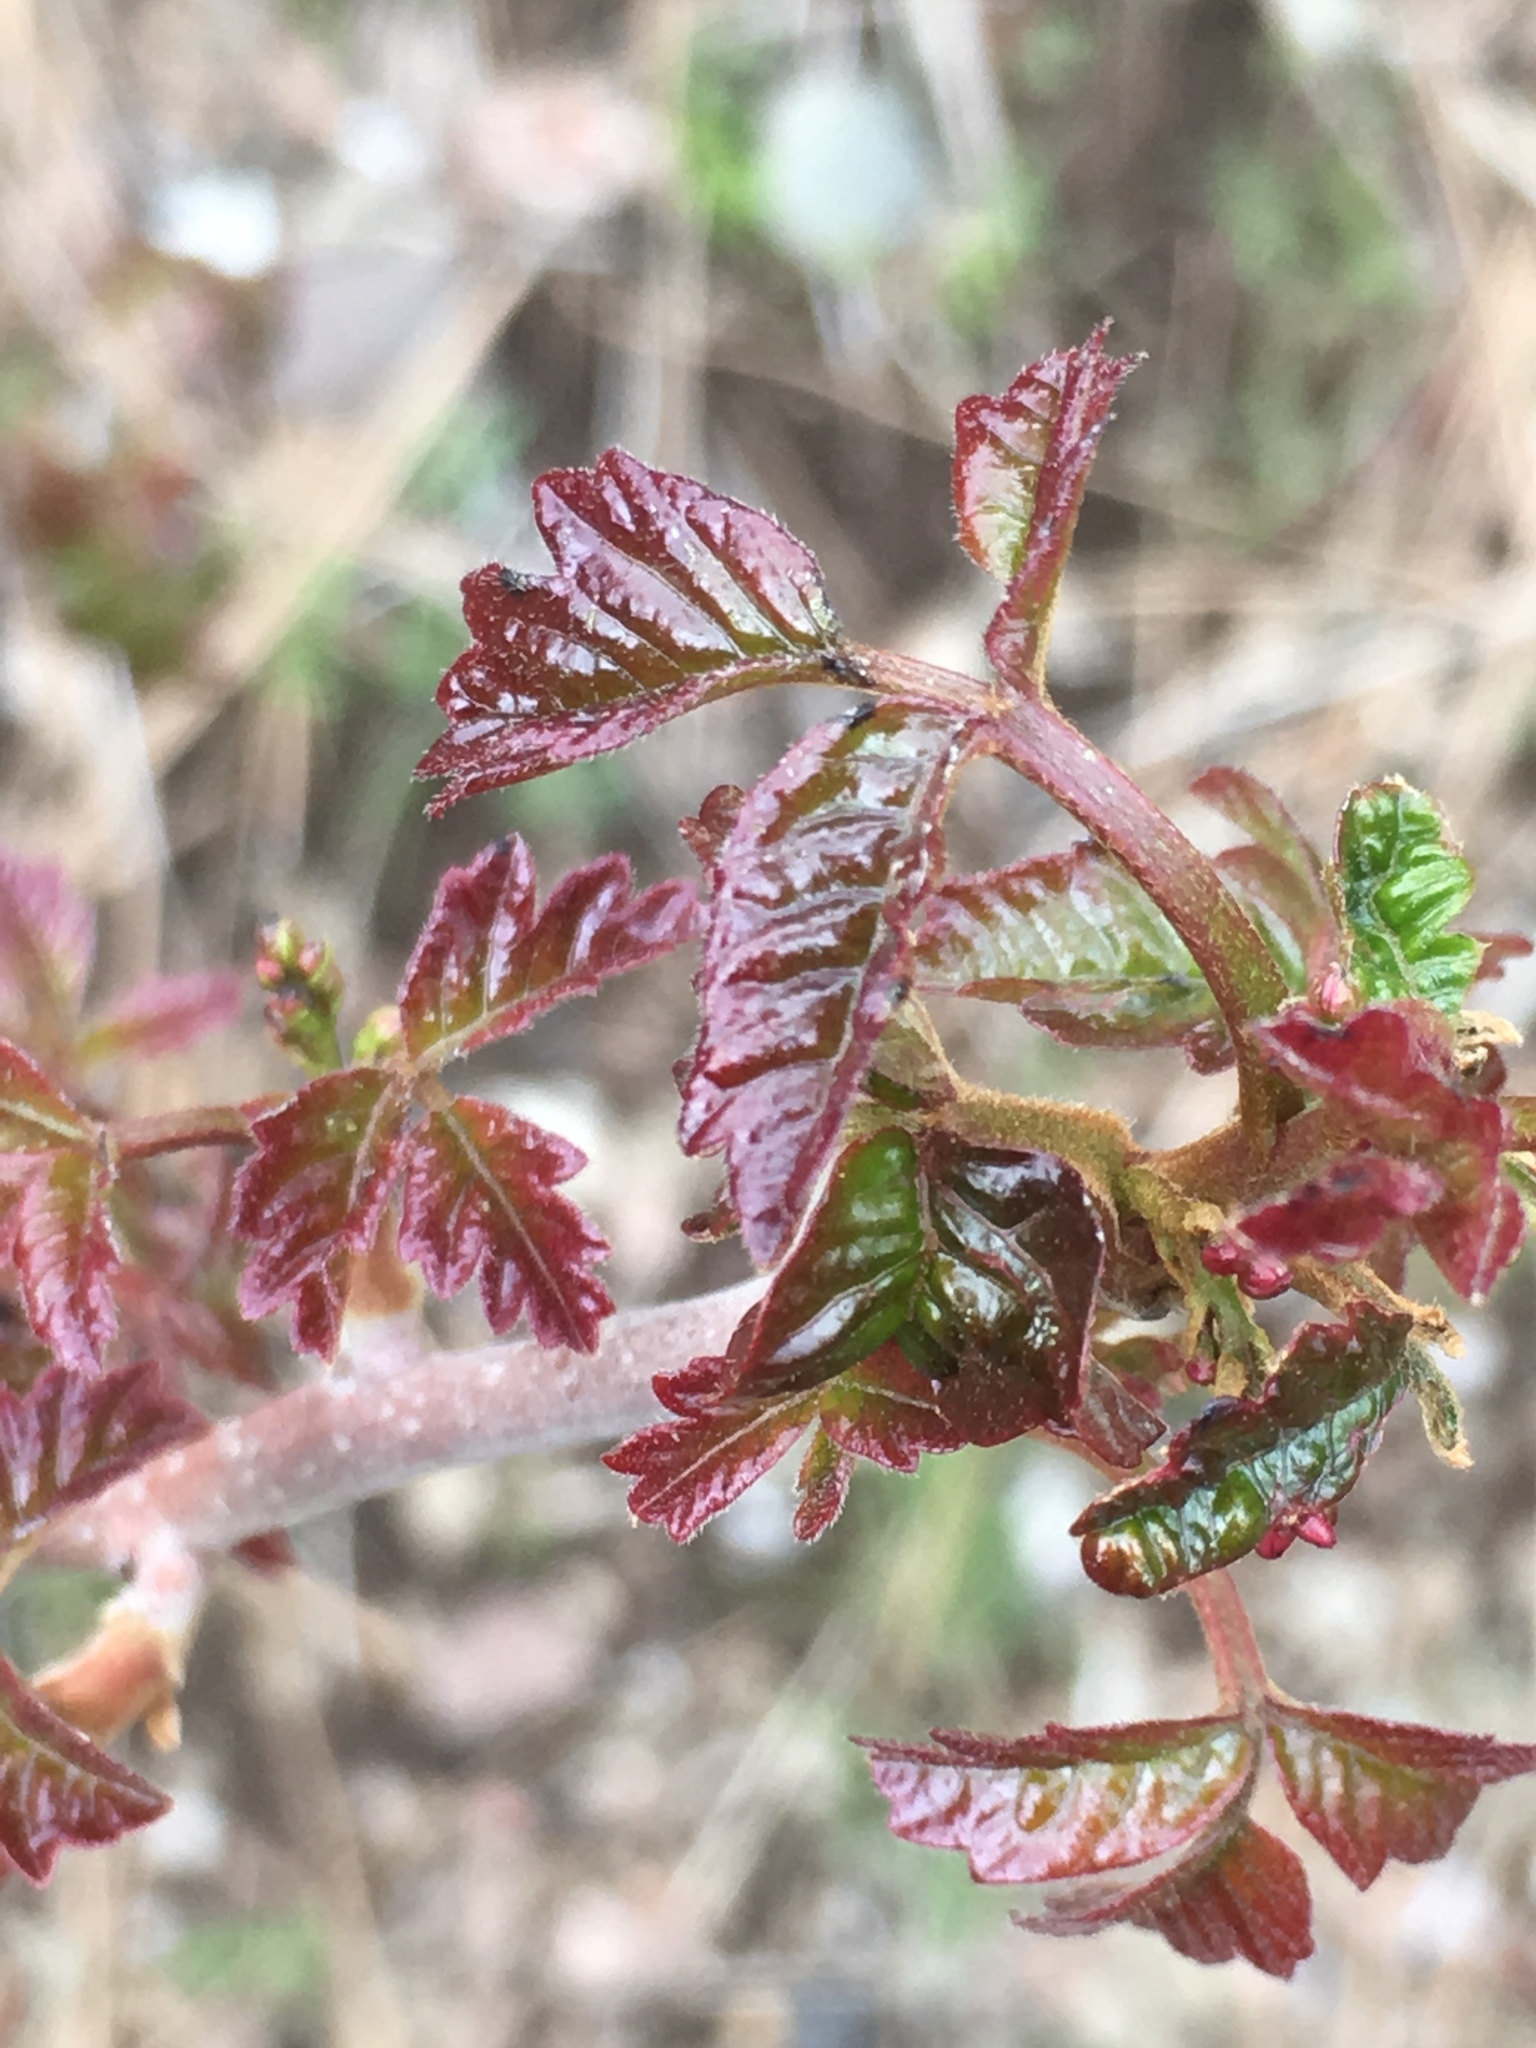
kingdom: Plantae
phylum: Tracheophyta
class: Magnoliopsida
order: Sapindales
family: Anacardiaceae
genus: Toxicodendron
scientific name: Toxicodendron diversilobum
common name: Pacific poison-oak
